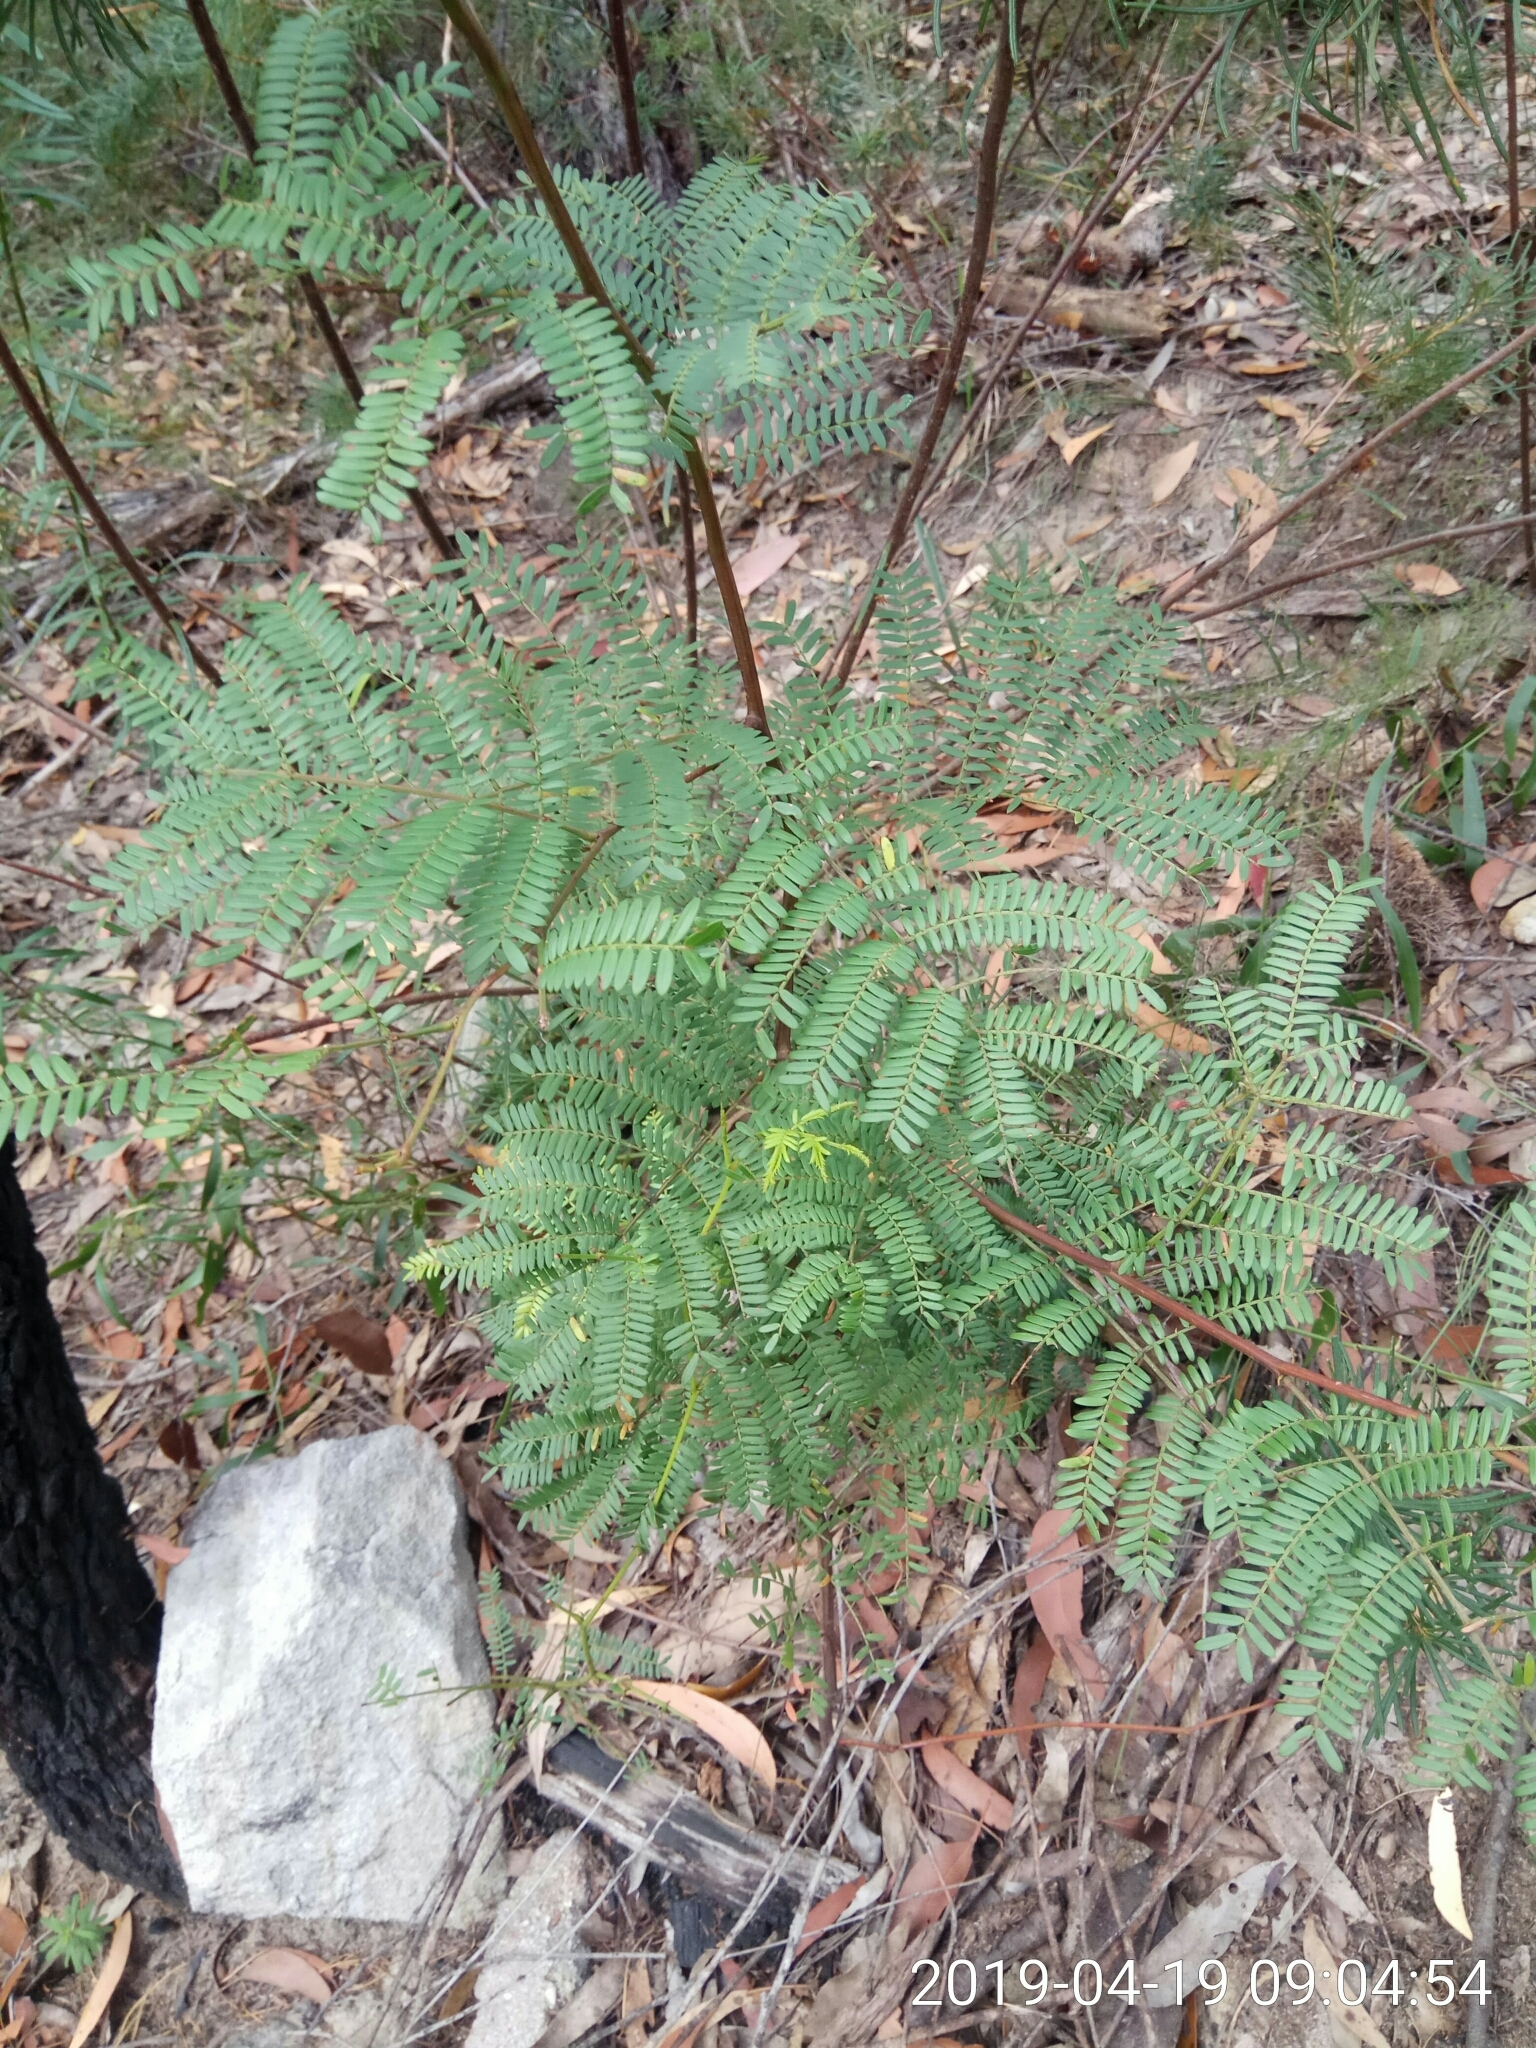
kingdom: Plantae
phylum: Tracheophyta
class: Magnoliopsida
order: Fabales
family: Fabaceae
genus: Acacia
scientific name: Acacia terminalis
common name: Cedar wattle
